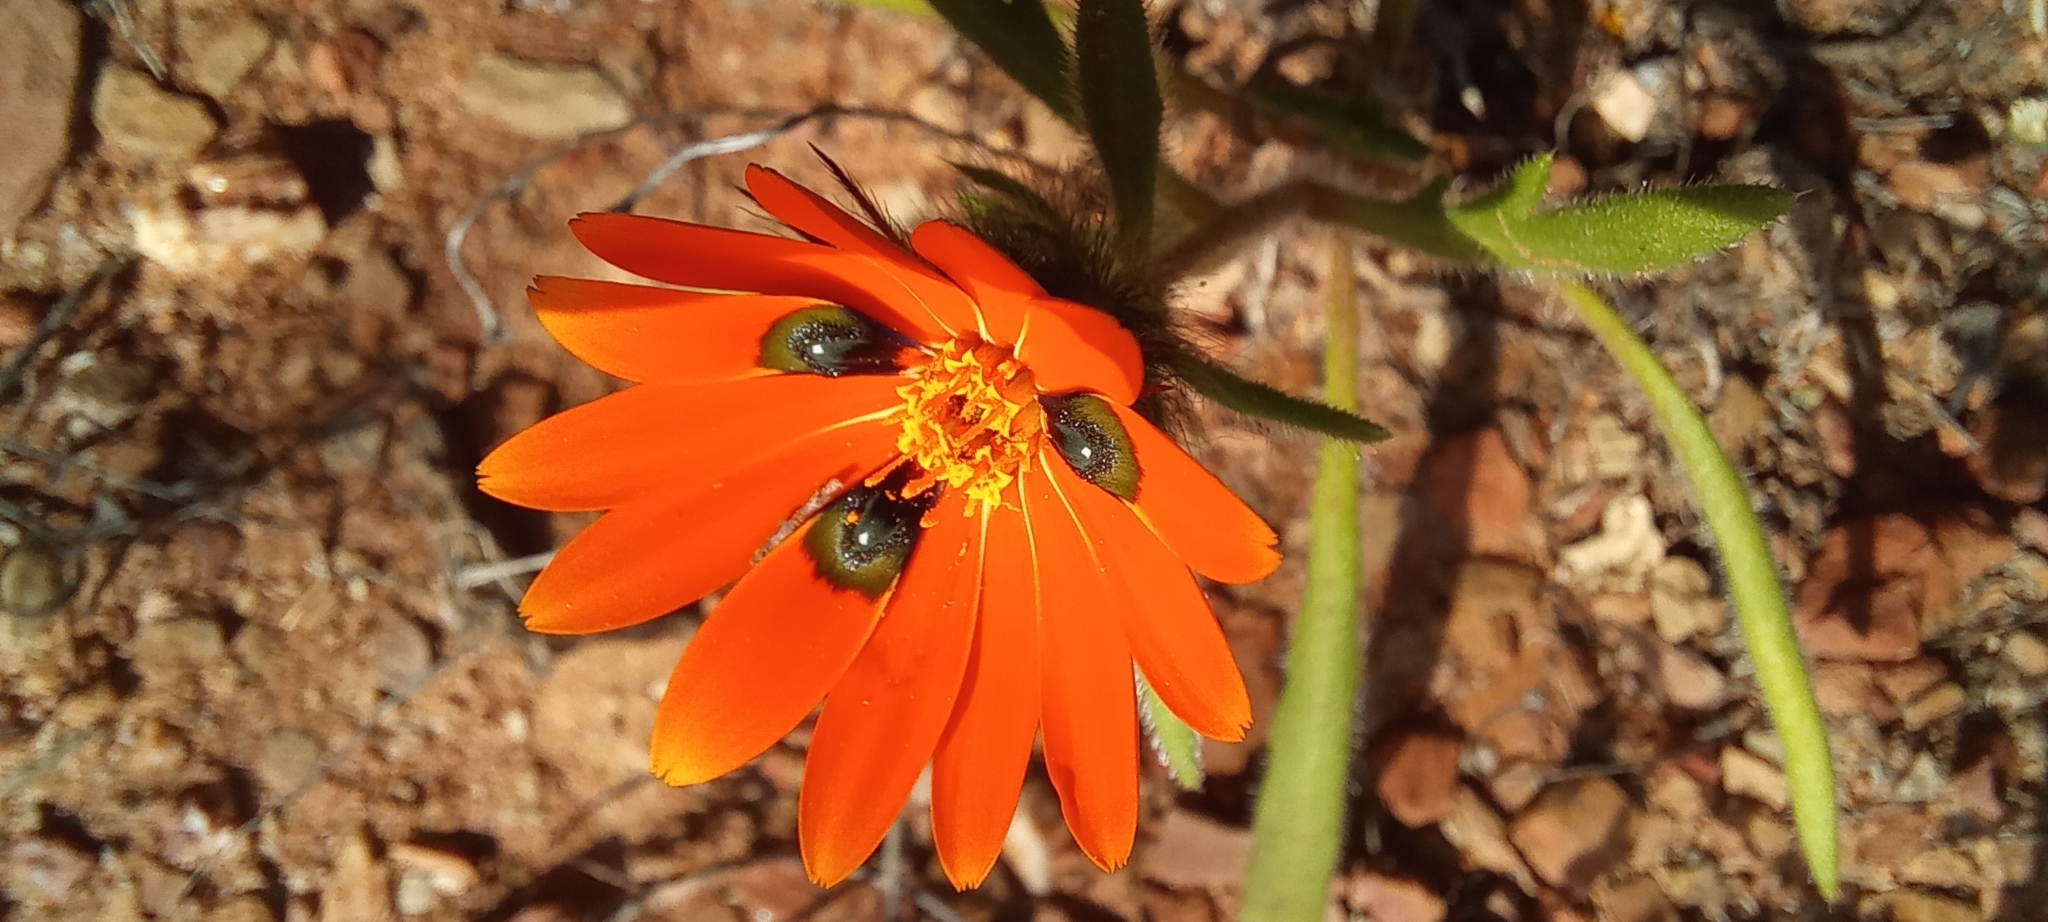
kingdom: Plantae
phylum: Tracheophyta
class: Magnoliopsida
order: Asterales
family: Asteraceae
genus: Gorteria
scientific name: Gorteria diffusa
